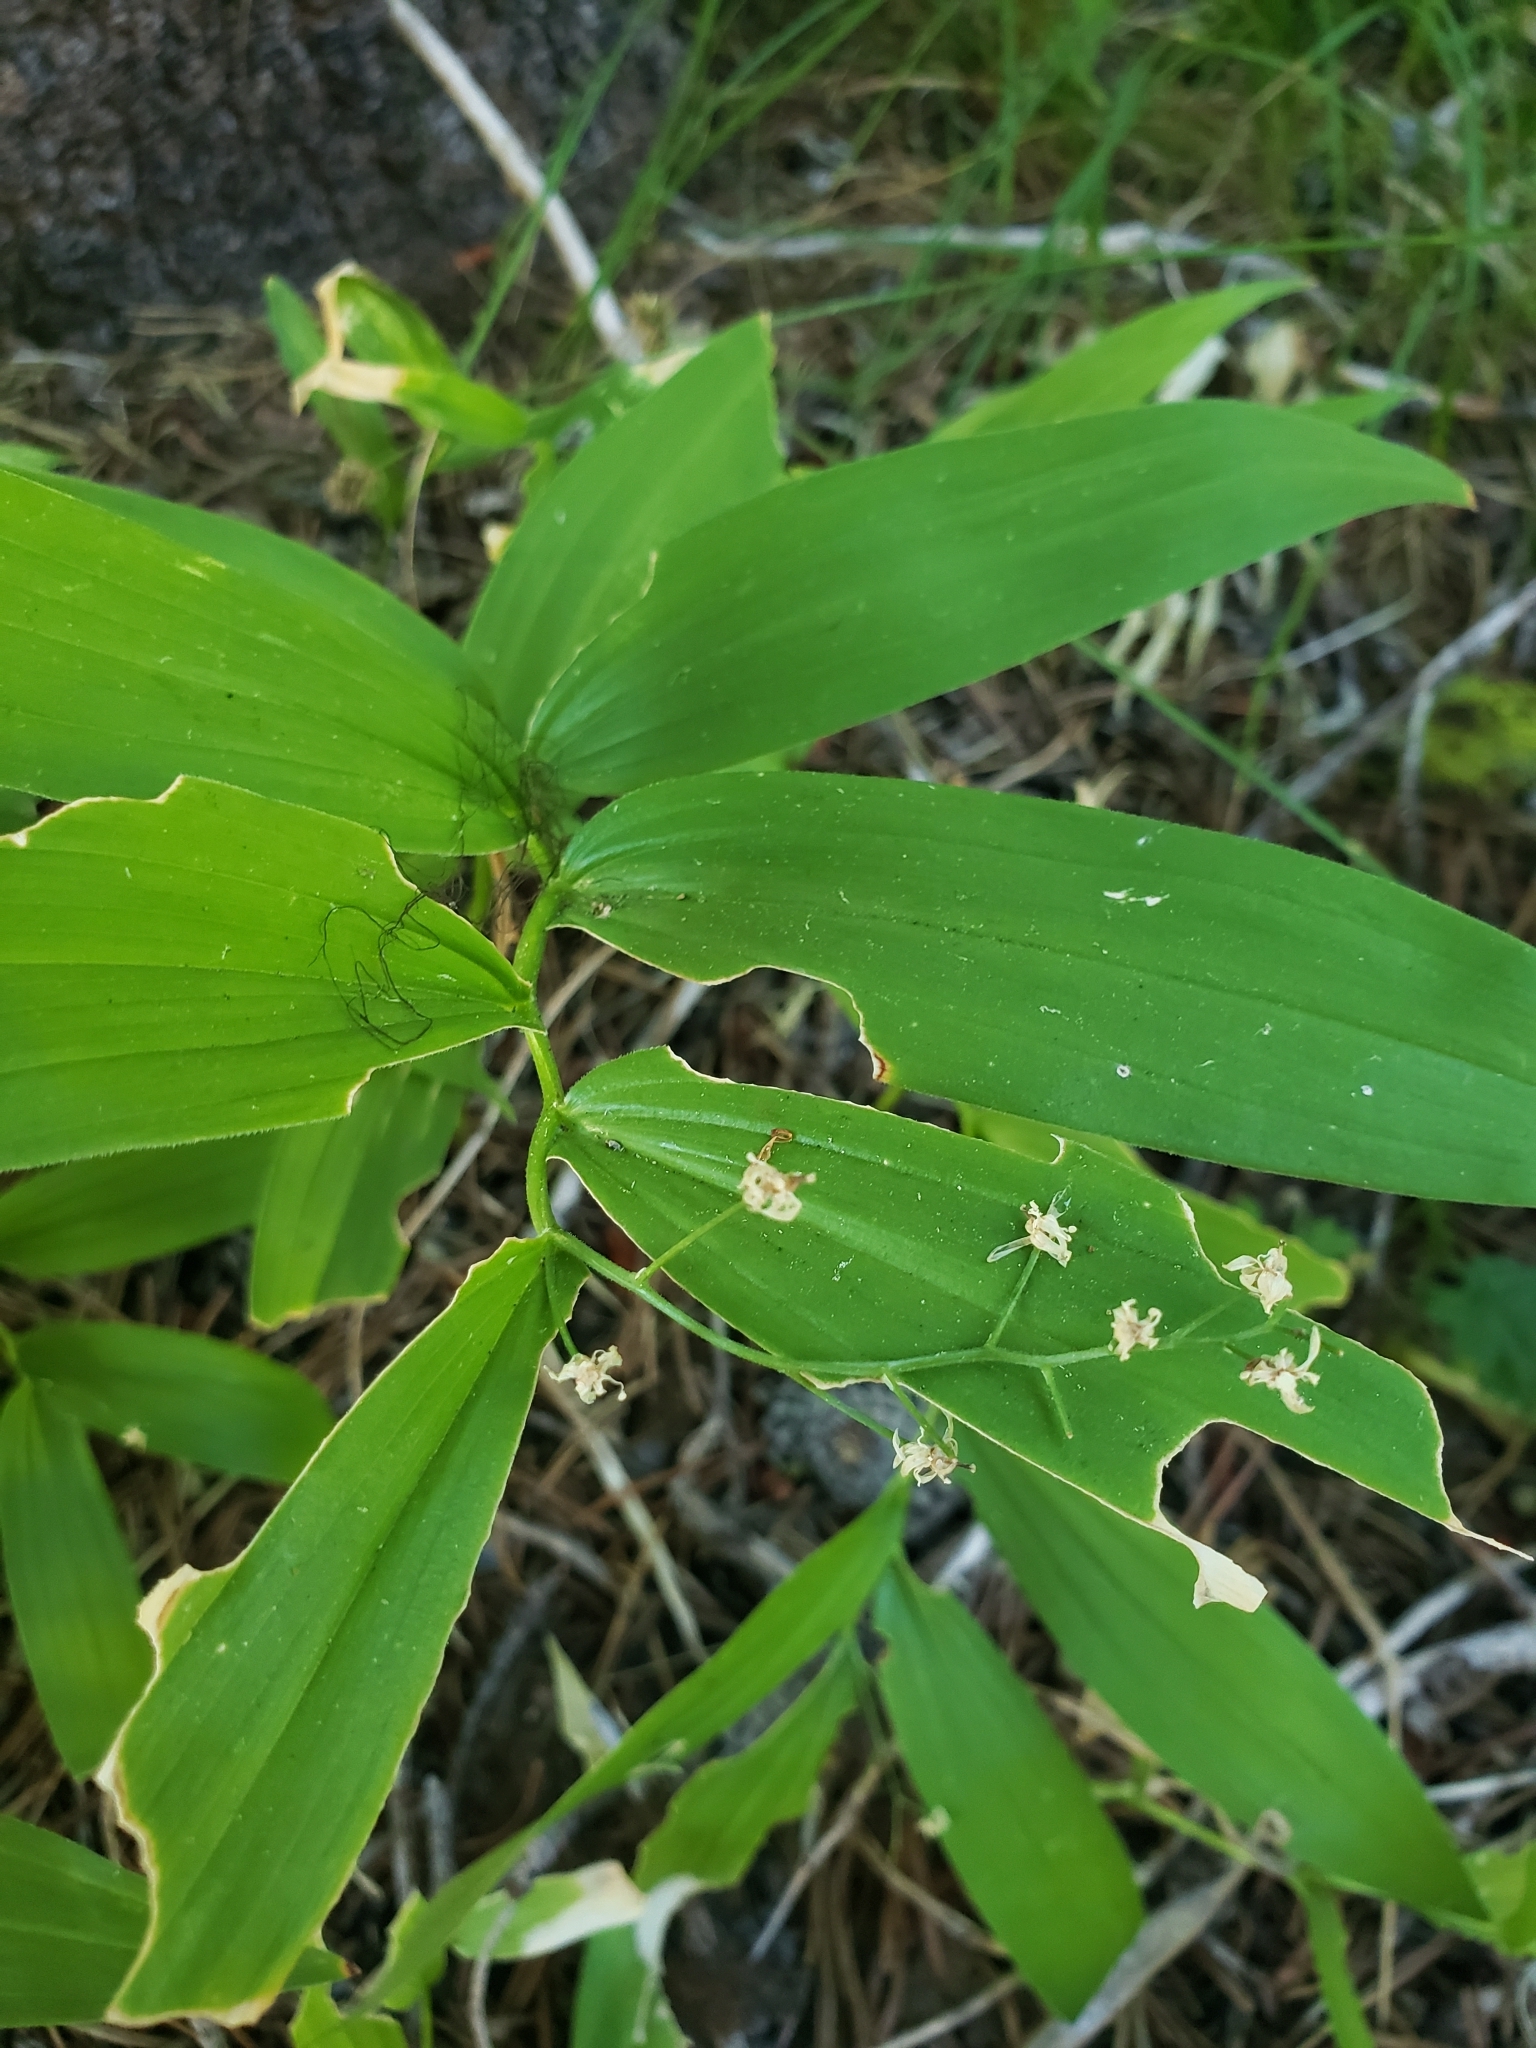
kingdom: Plantae
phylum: Tracheophyta
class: Liliopsida
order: Asparagales
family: Asparagaceae
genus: Maianthemum
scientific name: Maianthemum stellatum
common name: Little false solomon's seal
